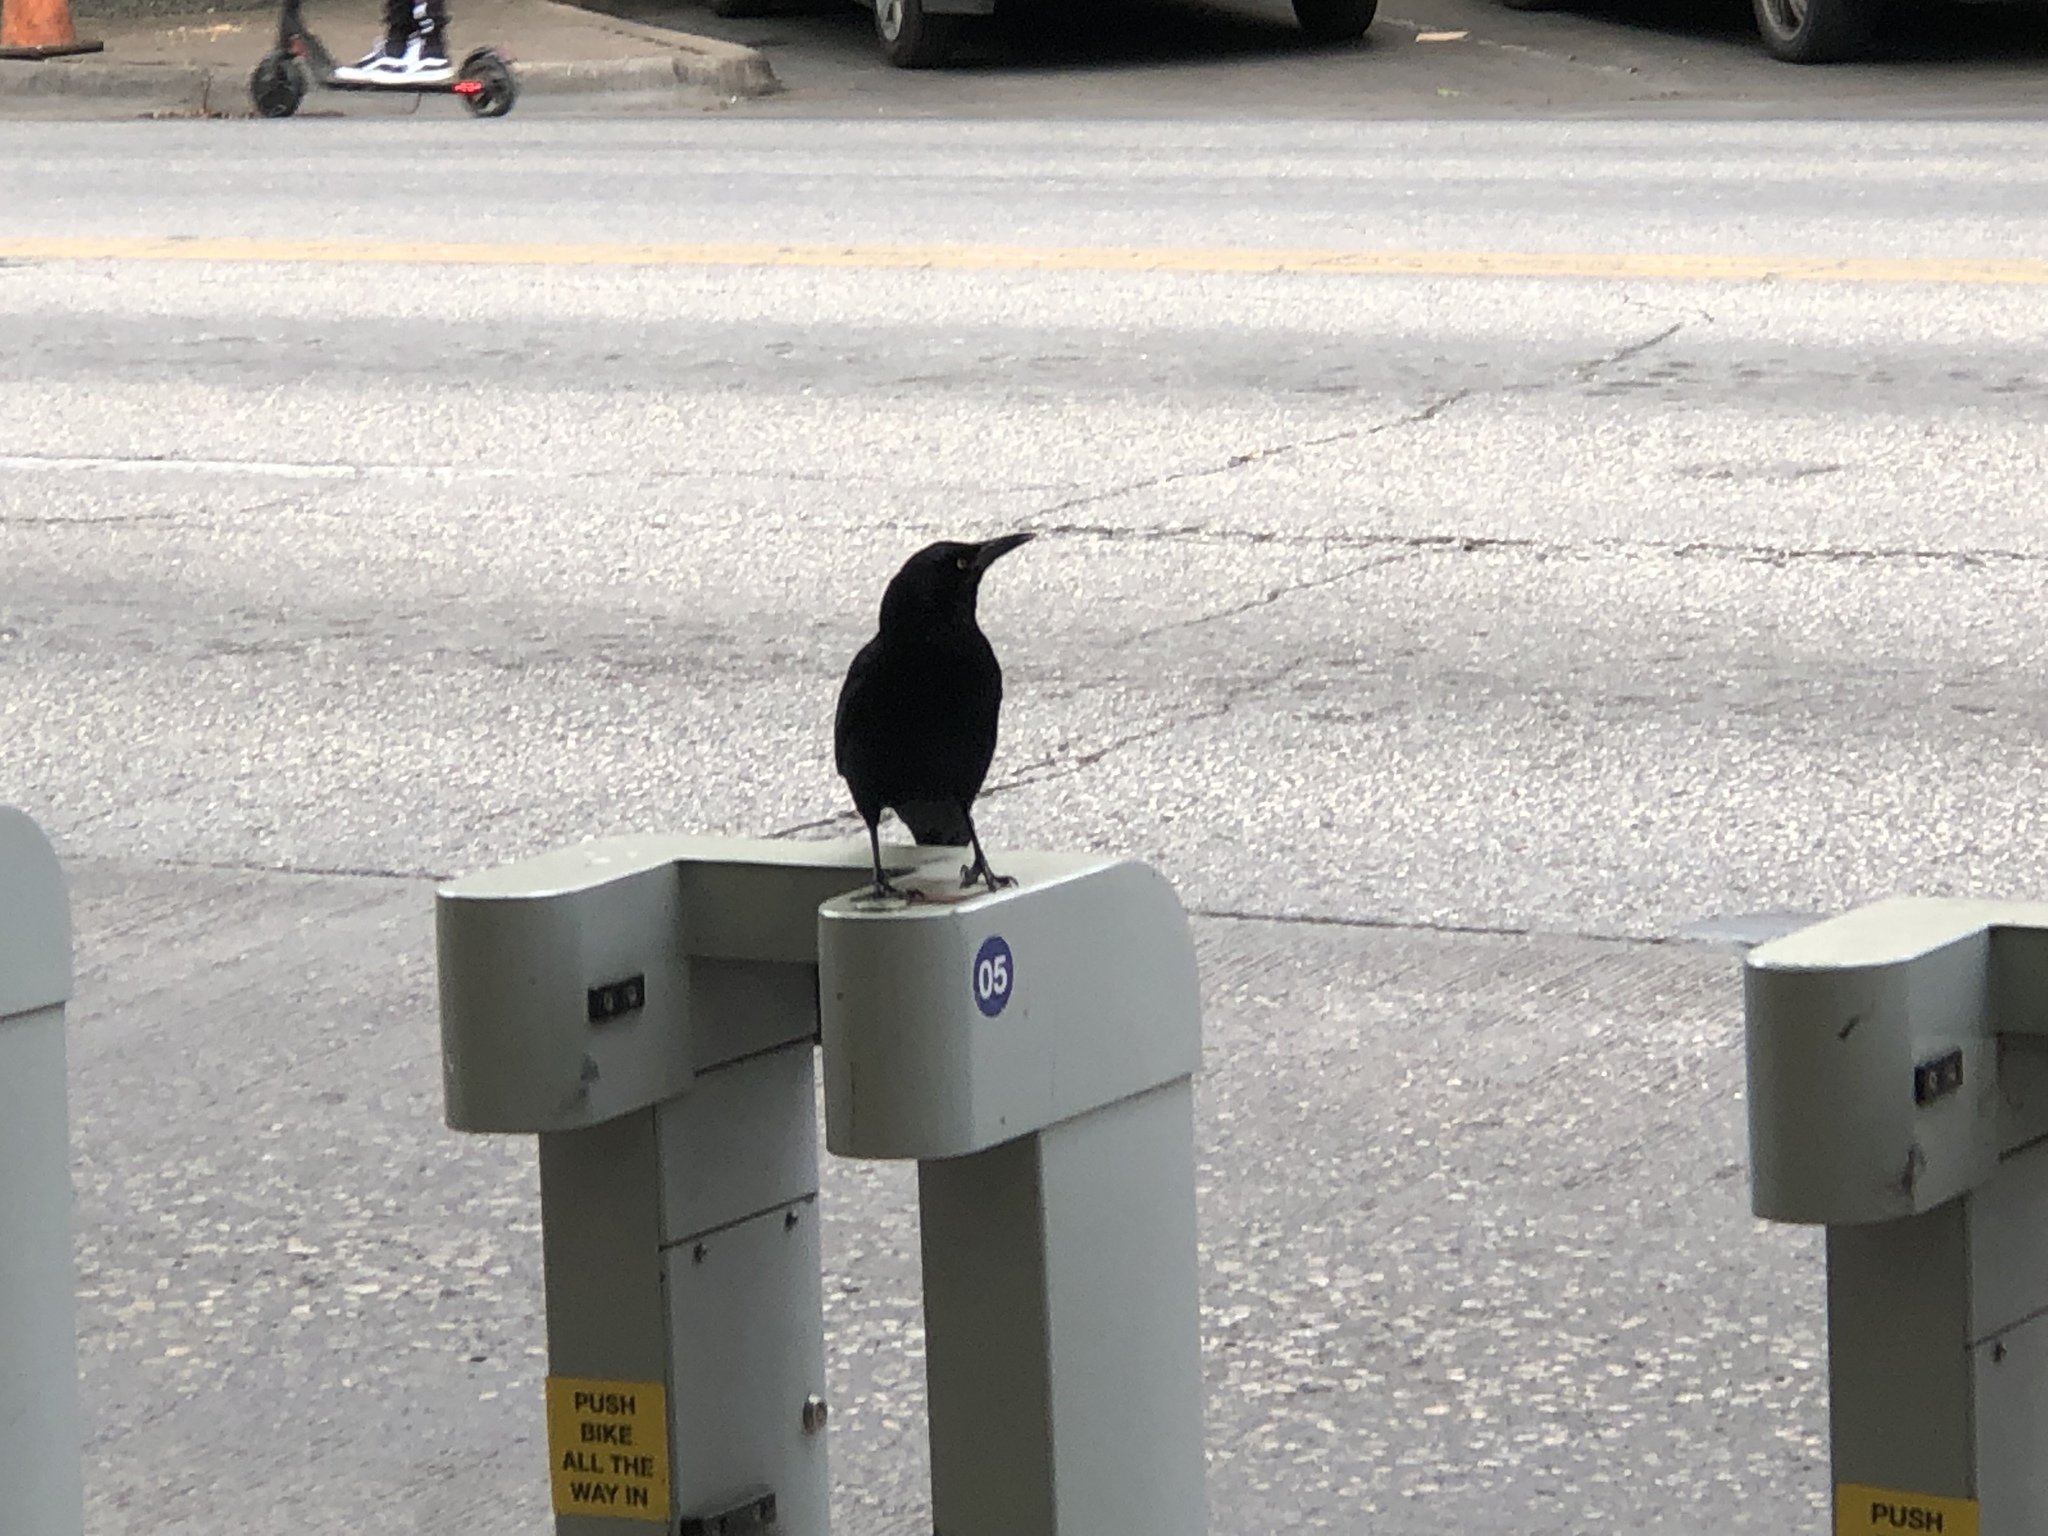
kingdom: Animalia
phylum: Chordata
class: Aves
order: Passeriformes
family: Icteridae
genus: Quiscalus
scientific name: Quiscalus mexicanus
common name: Great-tailed grackle
